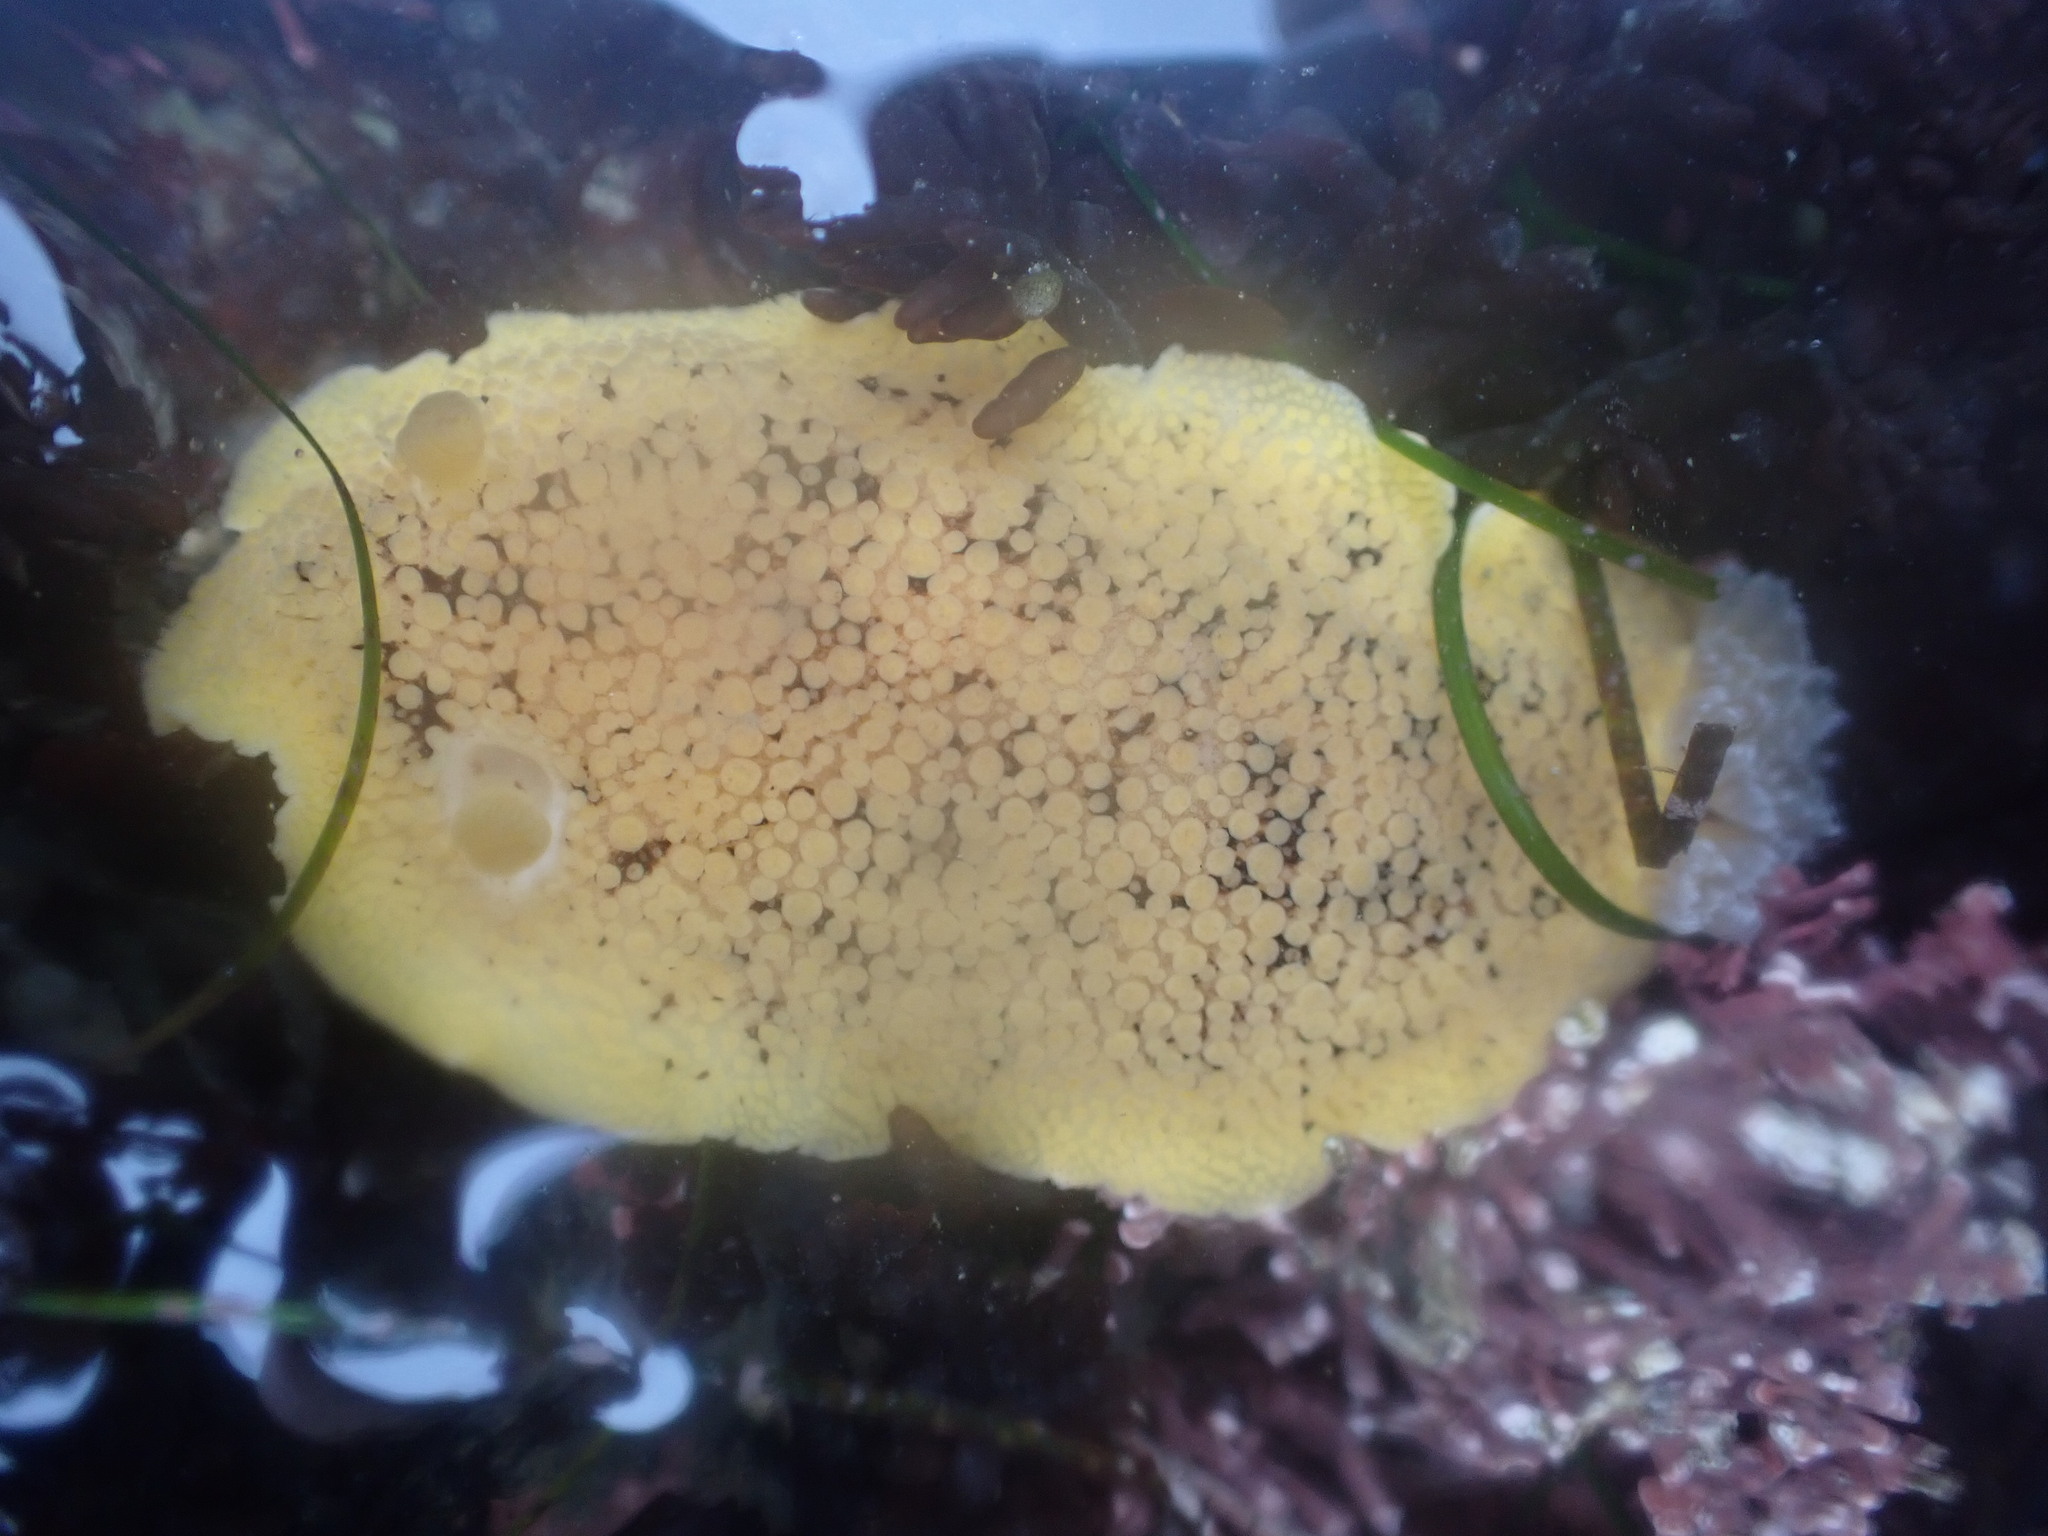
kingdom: Animalia
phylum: Mollusca
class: Gastropoda
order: Nudibranchia
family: Discodorididae
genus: Peltodoris
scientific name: Peltodoris nobilis
